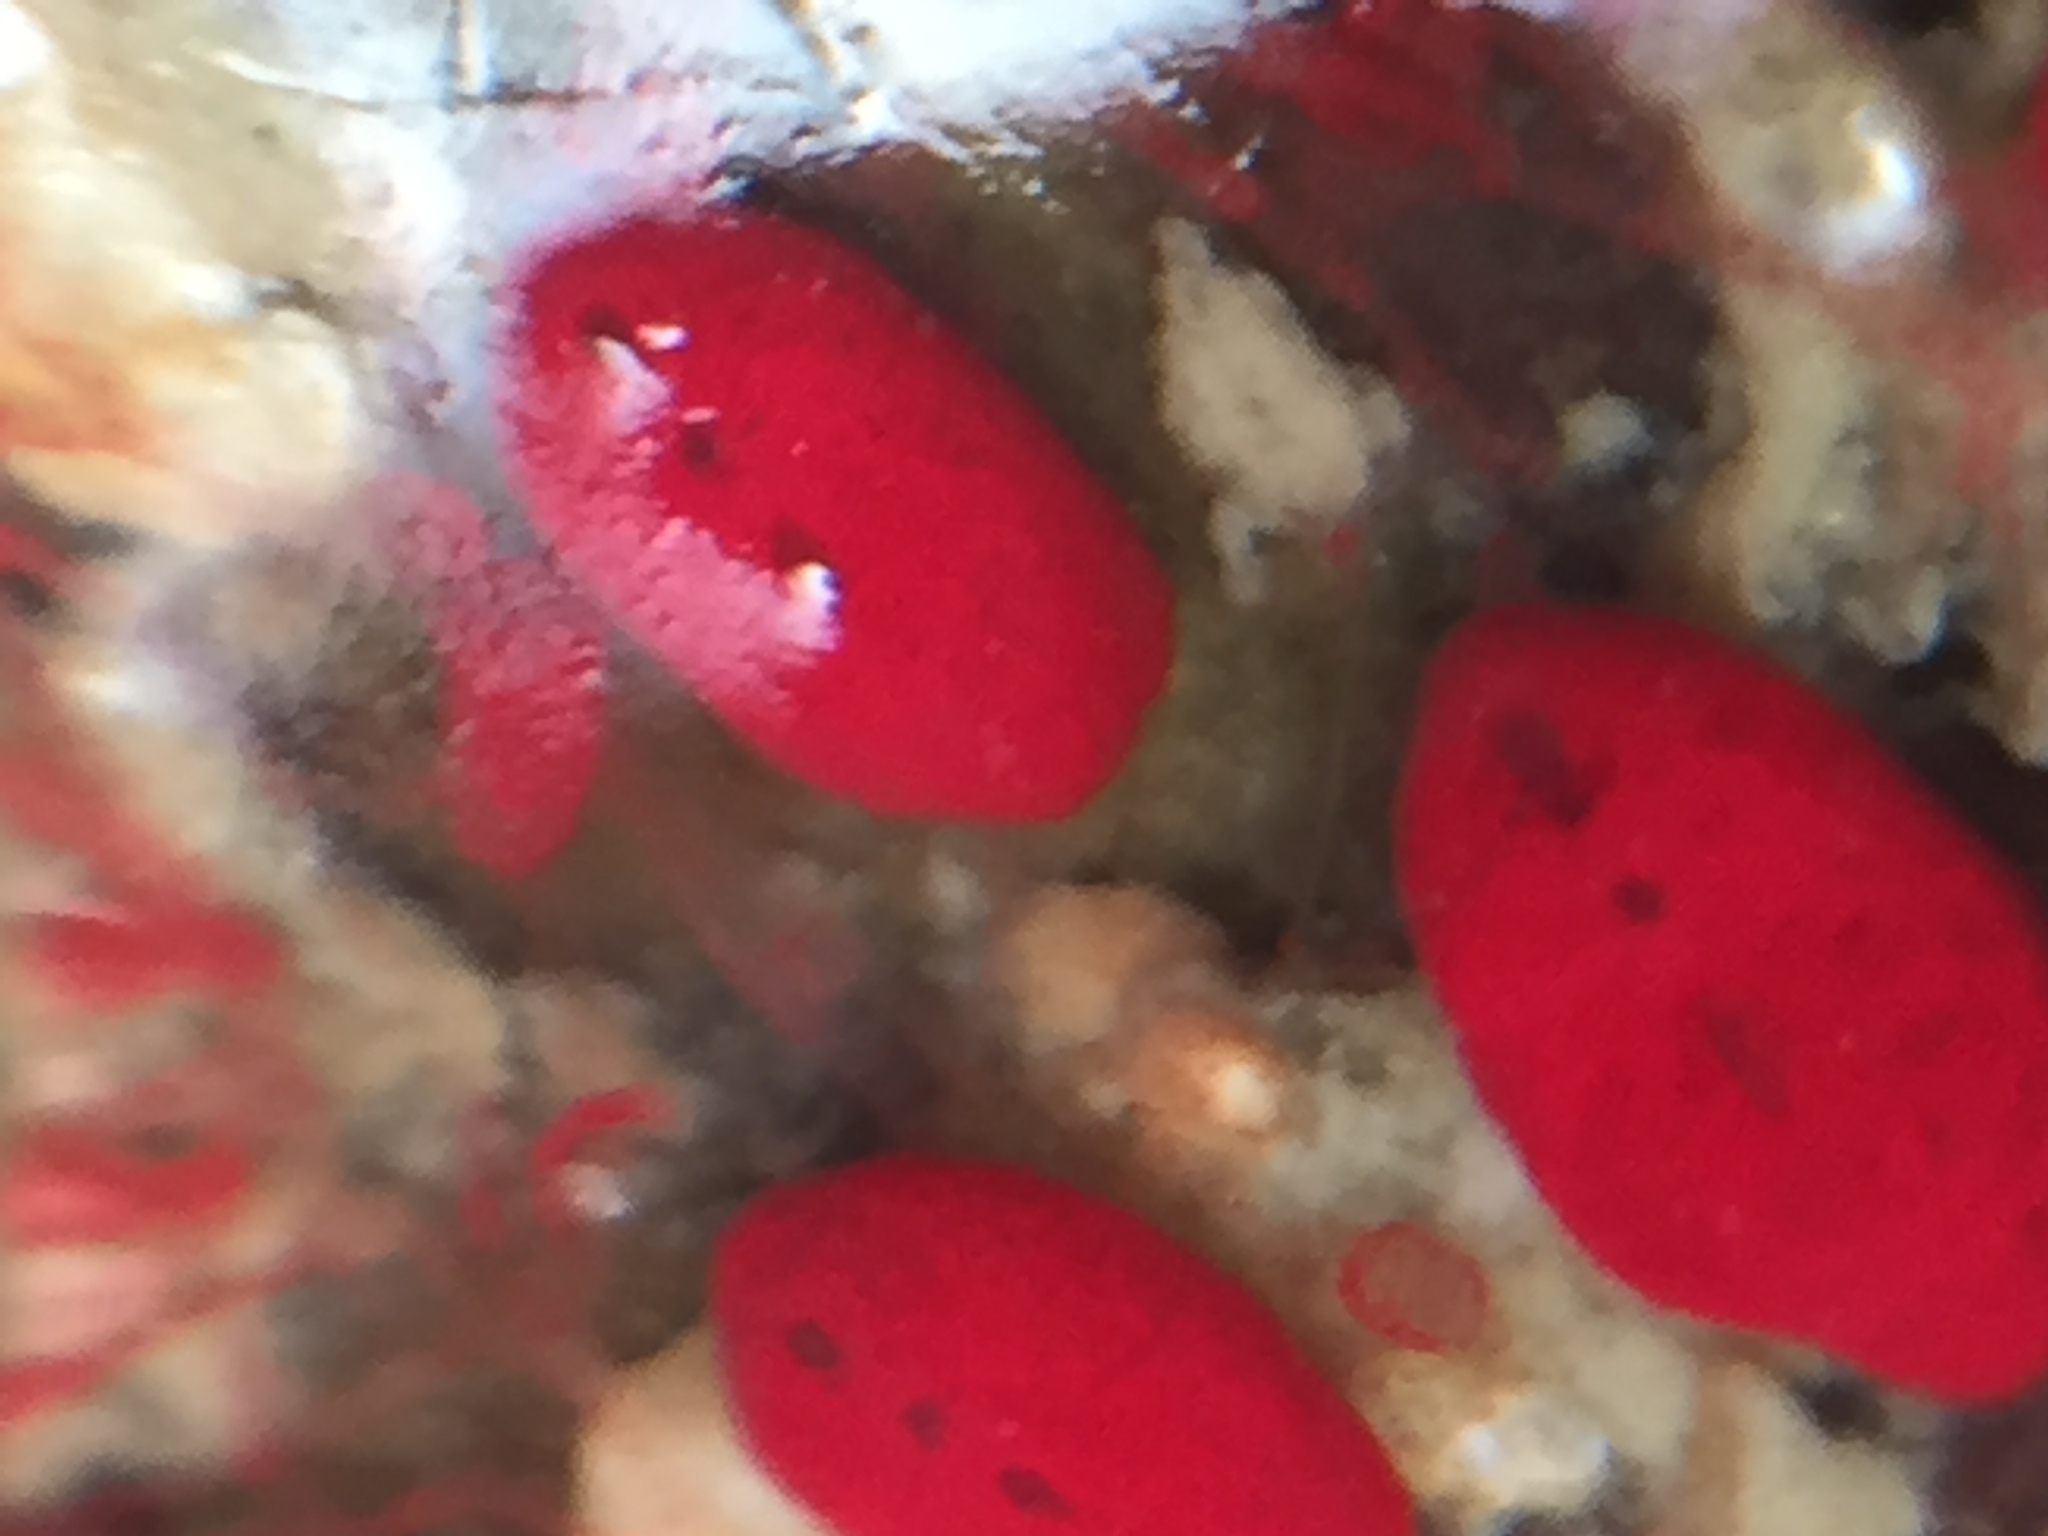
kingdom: Animalia
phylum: Chordata
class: Ascidiacea
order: Stolidobranchia
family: Styelidae
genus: Symplegma
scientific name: Symplegma rubra
